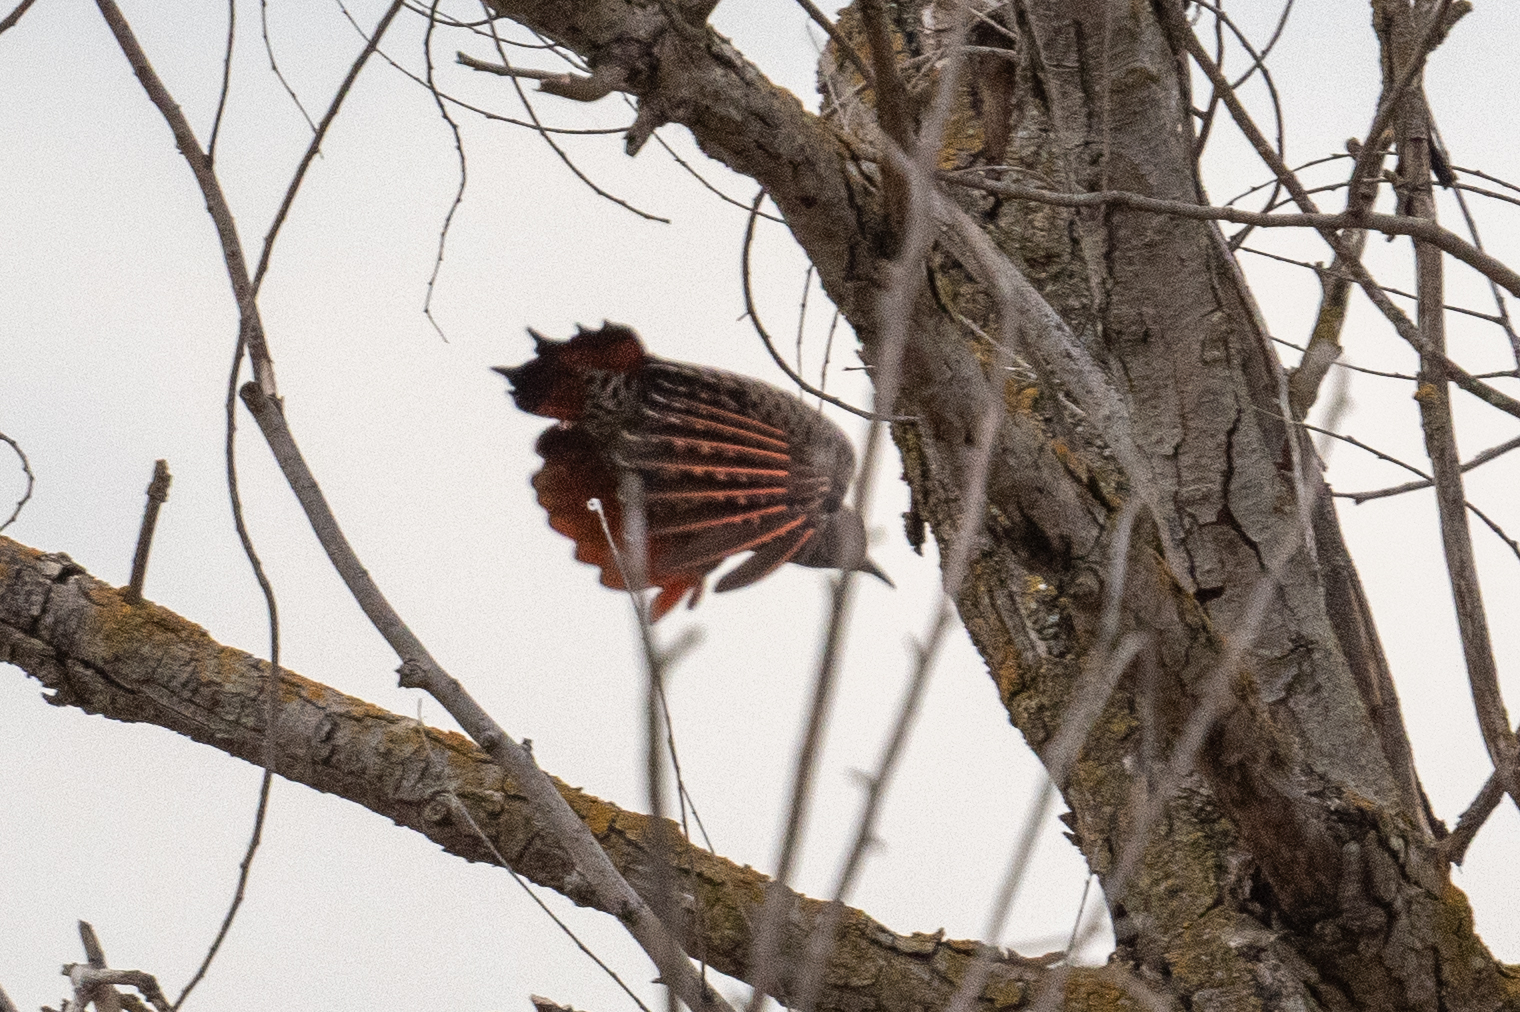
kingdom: Animalia
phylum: Chordata
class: Aves
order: Piciformes
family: Picidae
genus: Colaptes
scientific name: Colaptes auratus
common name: Northern flicker
